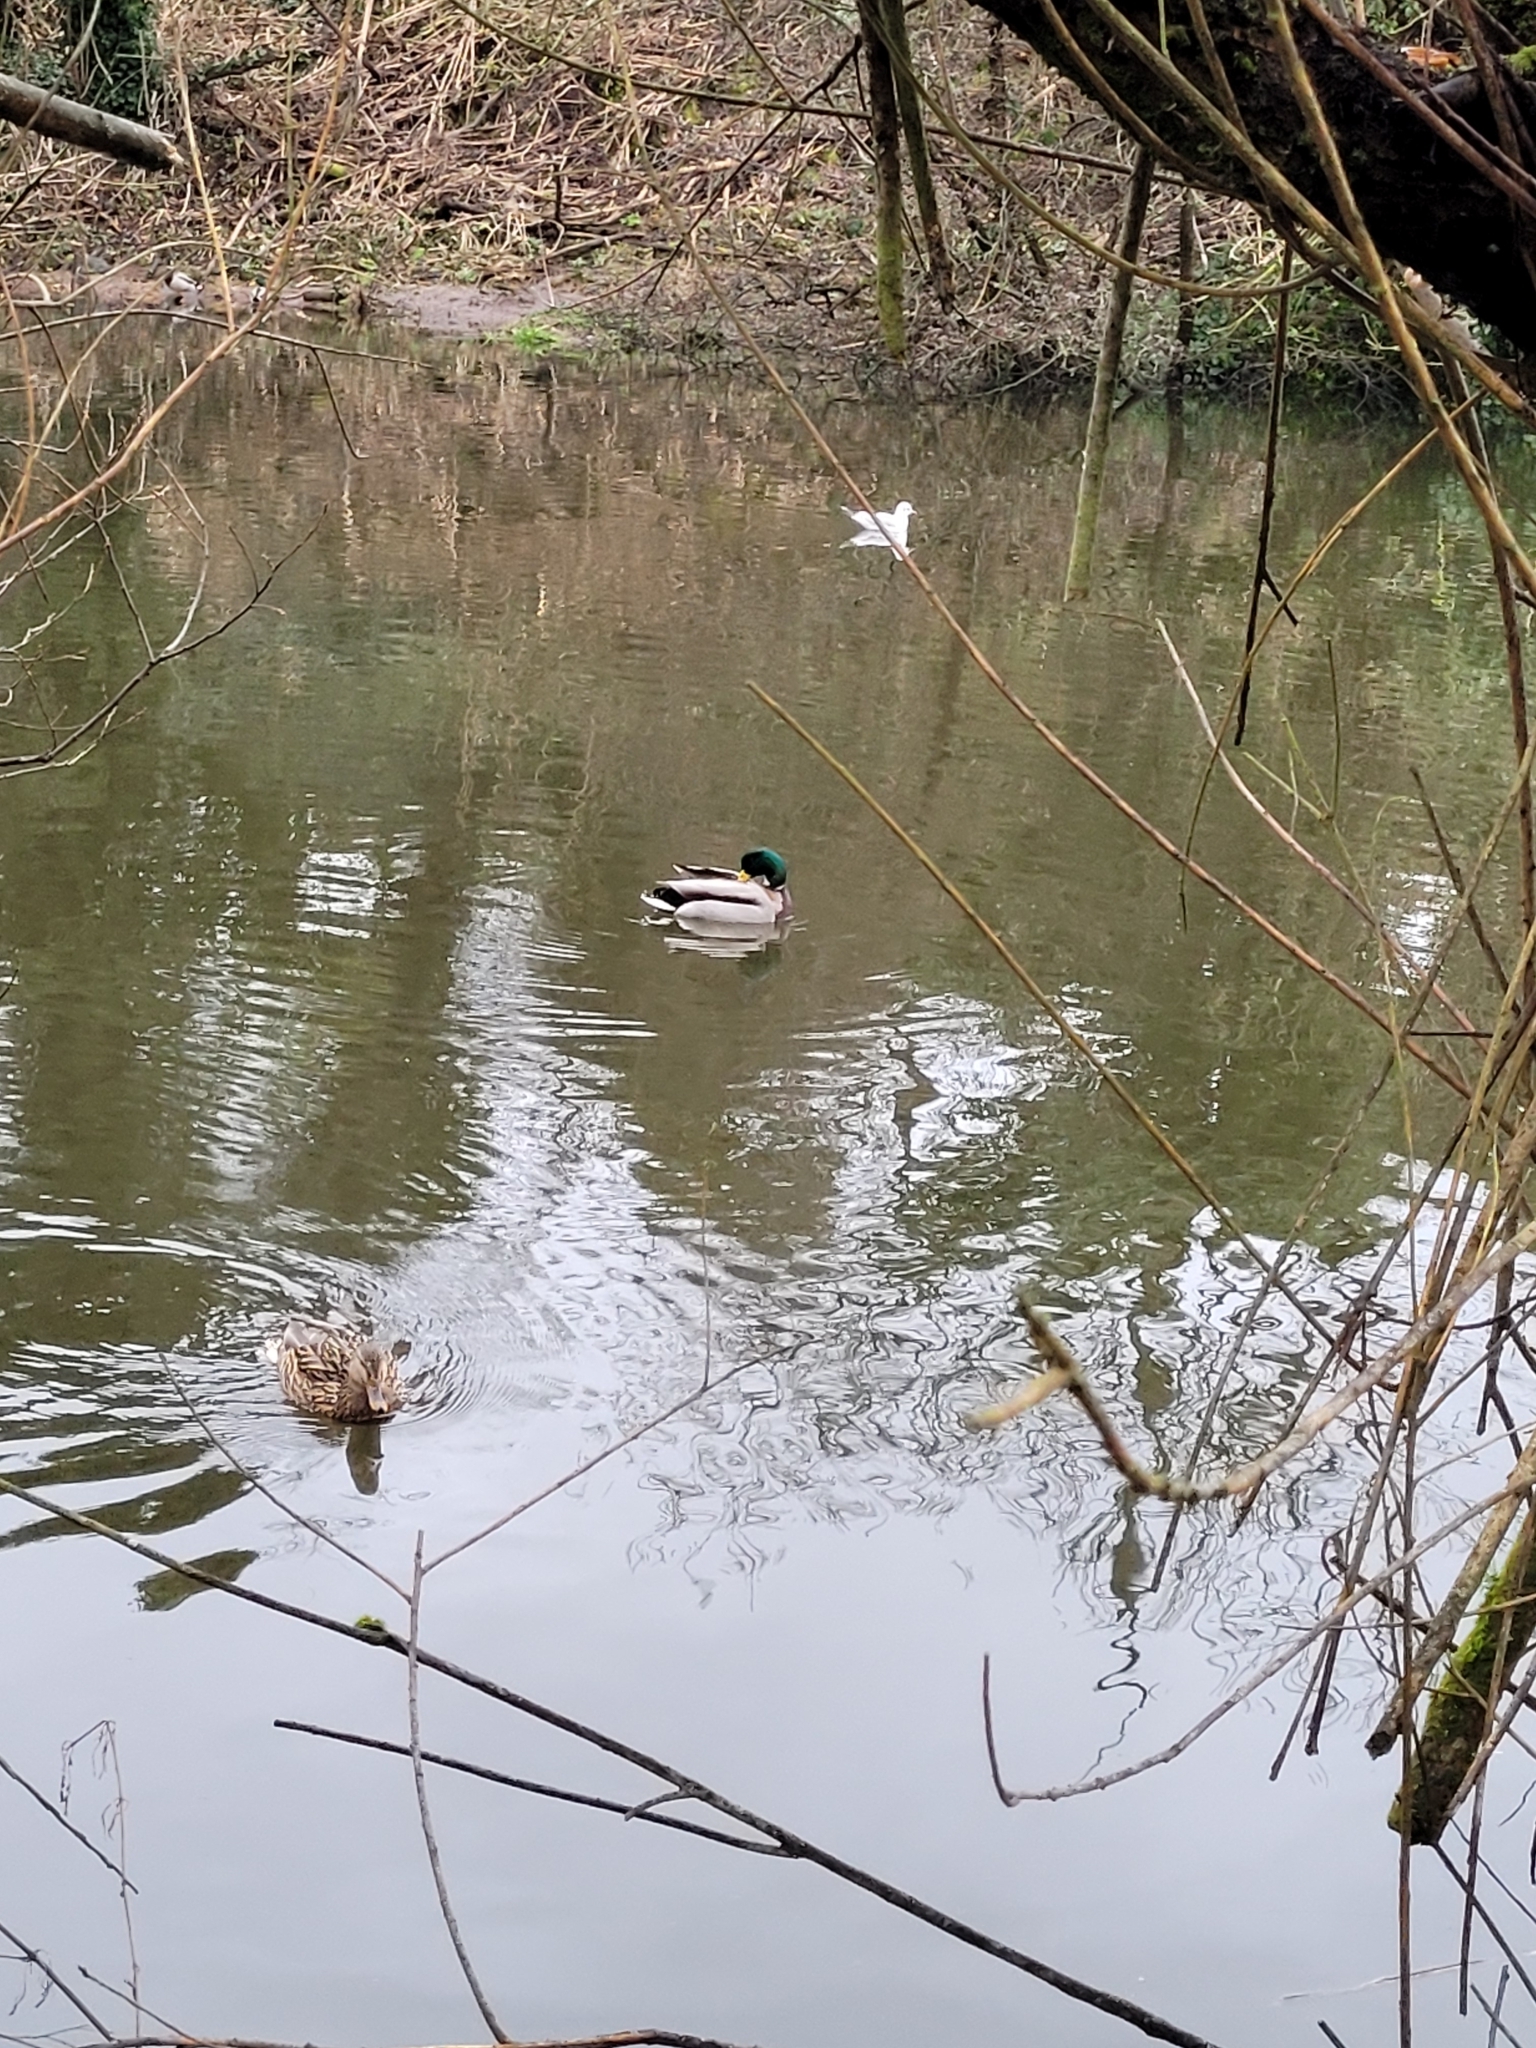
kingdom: Animalia
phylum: Chordata
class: Aves
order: Anseriformes
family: Anatidae
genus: Anas
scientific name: Anas platyrhynchos
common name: Mallard
